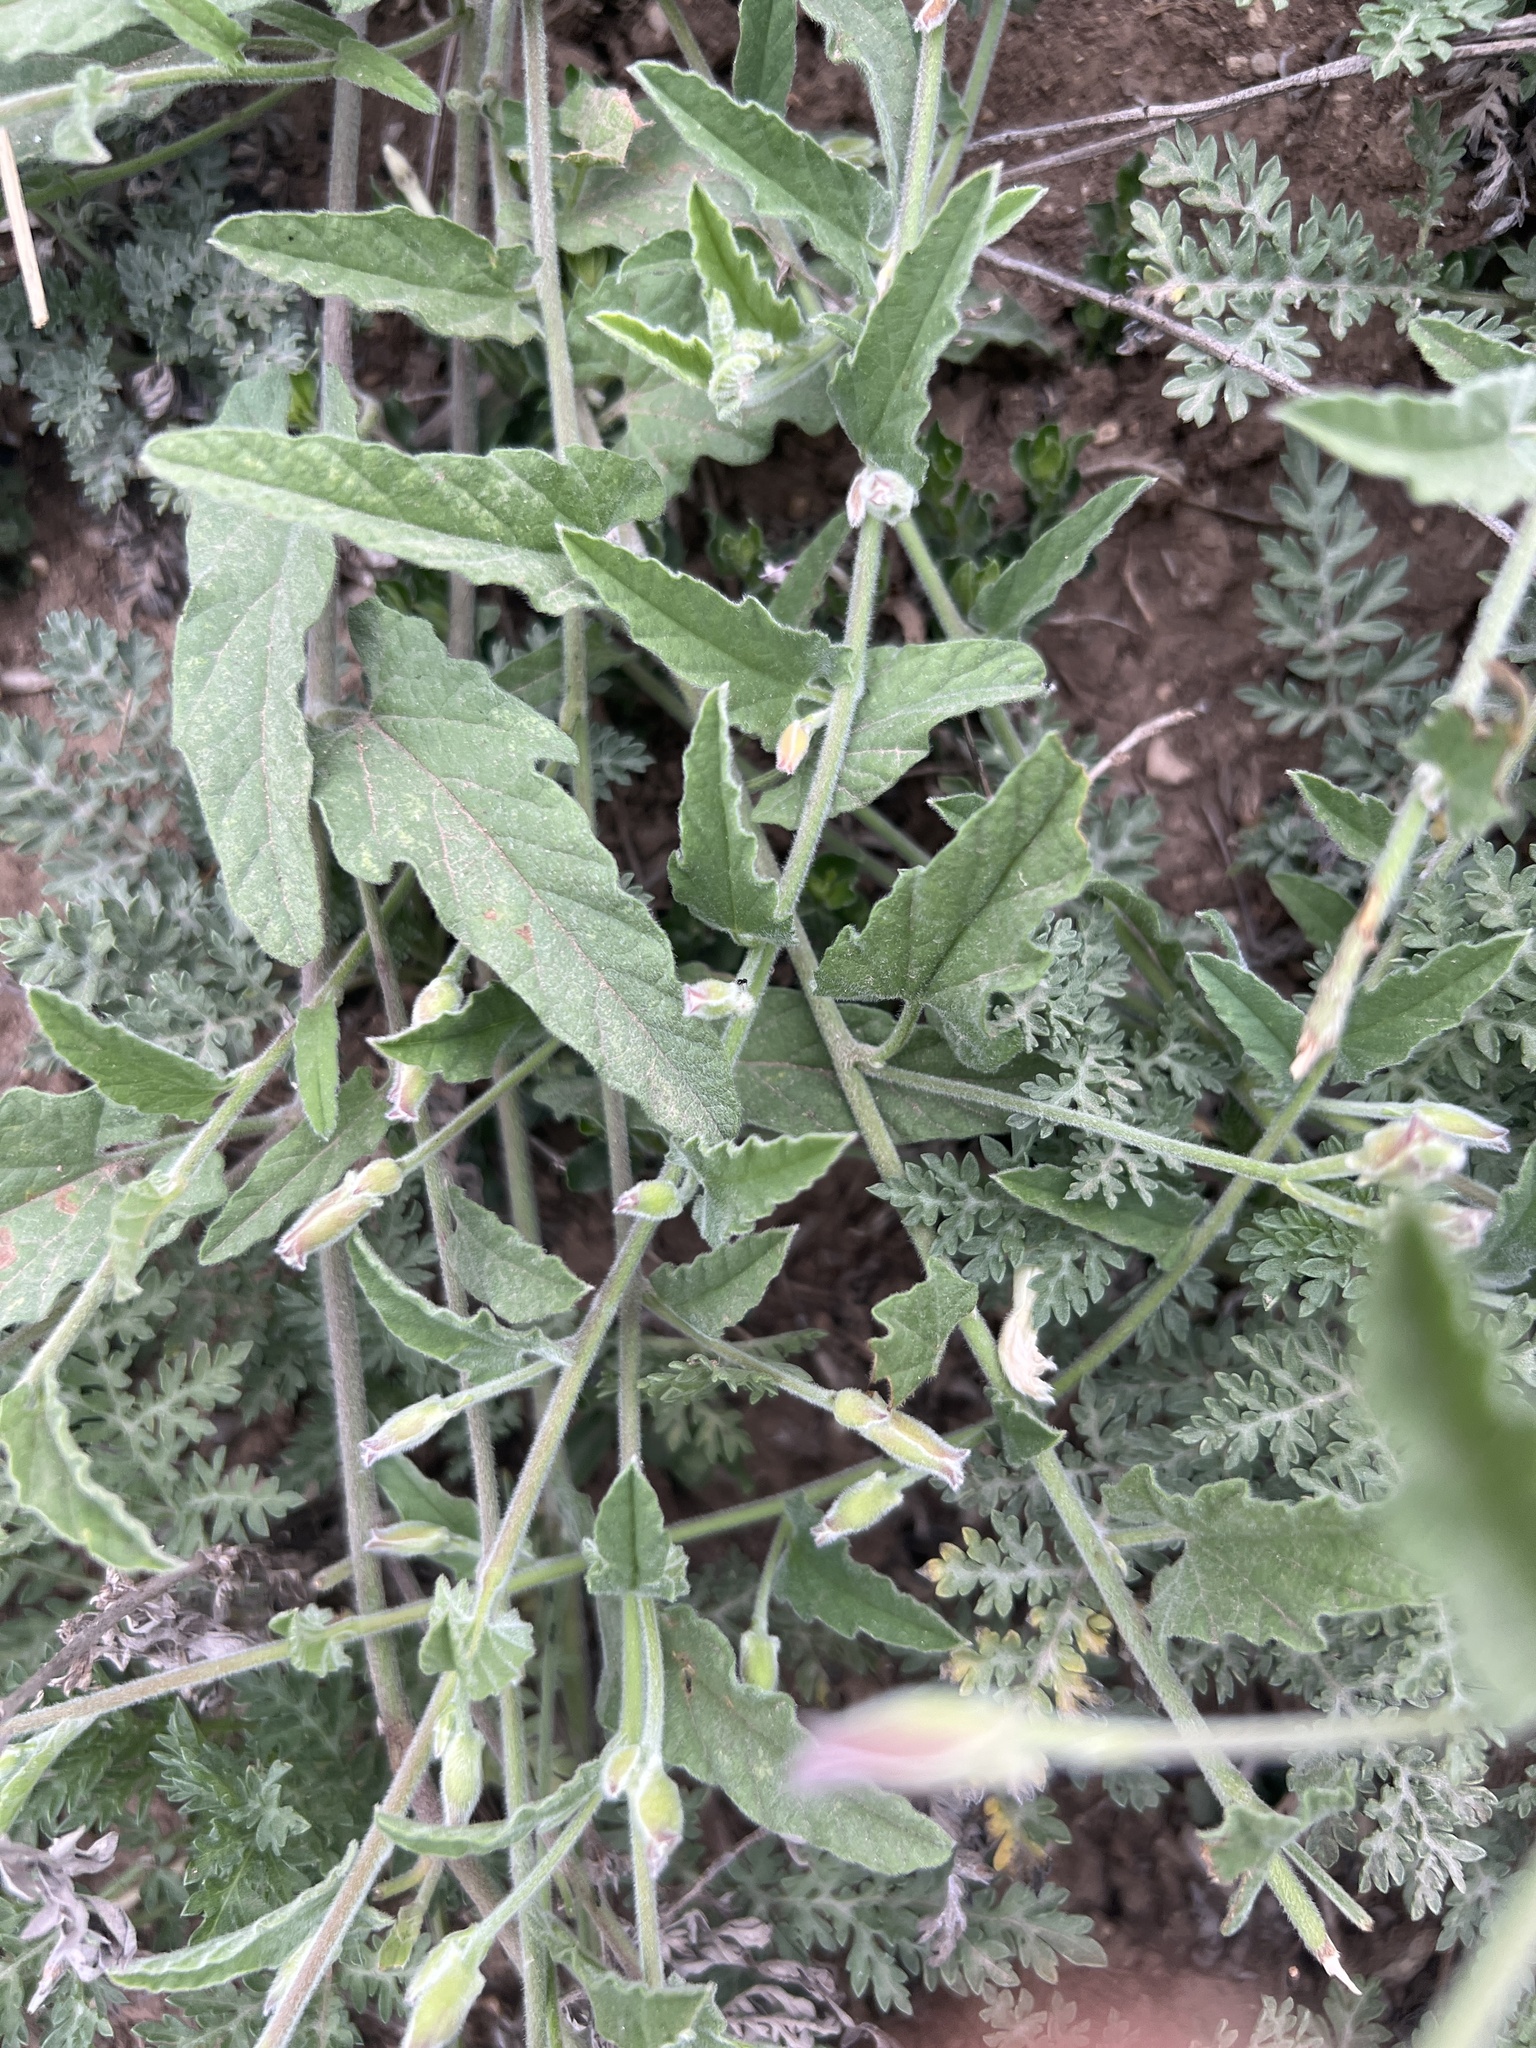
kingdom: Plantae
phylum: Tracheophyta
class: Magnoliopsida
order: Solanales
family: Convolvulaceae
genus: Convolvulus
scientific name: Convolvulus arvensis
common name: Field bindweed
